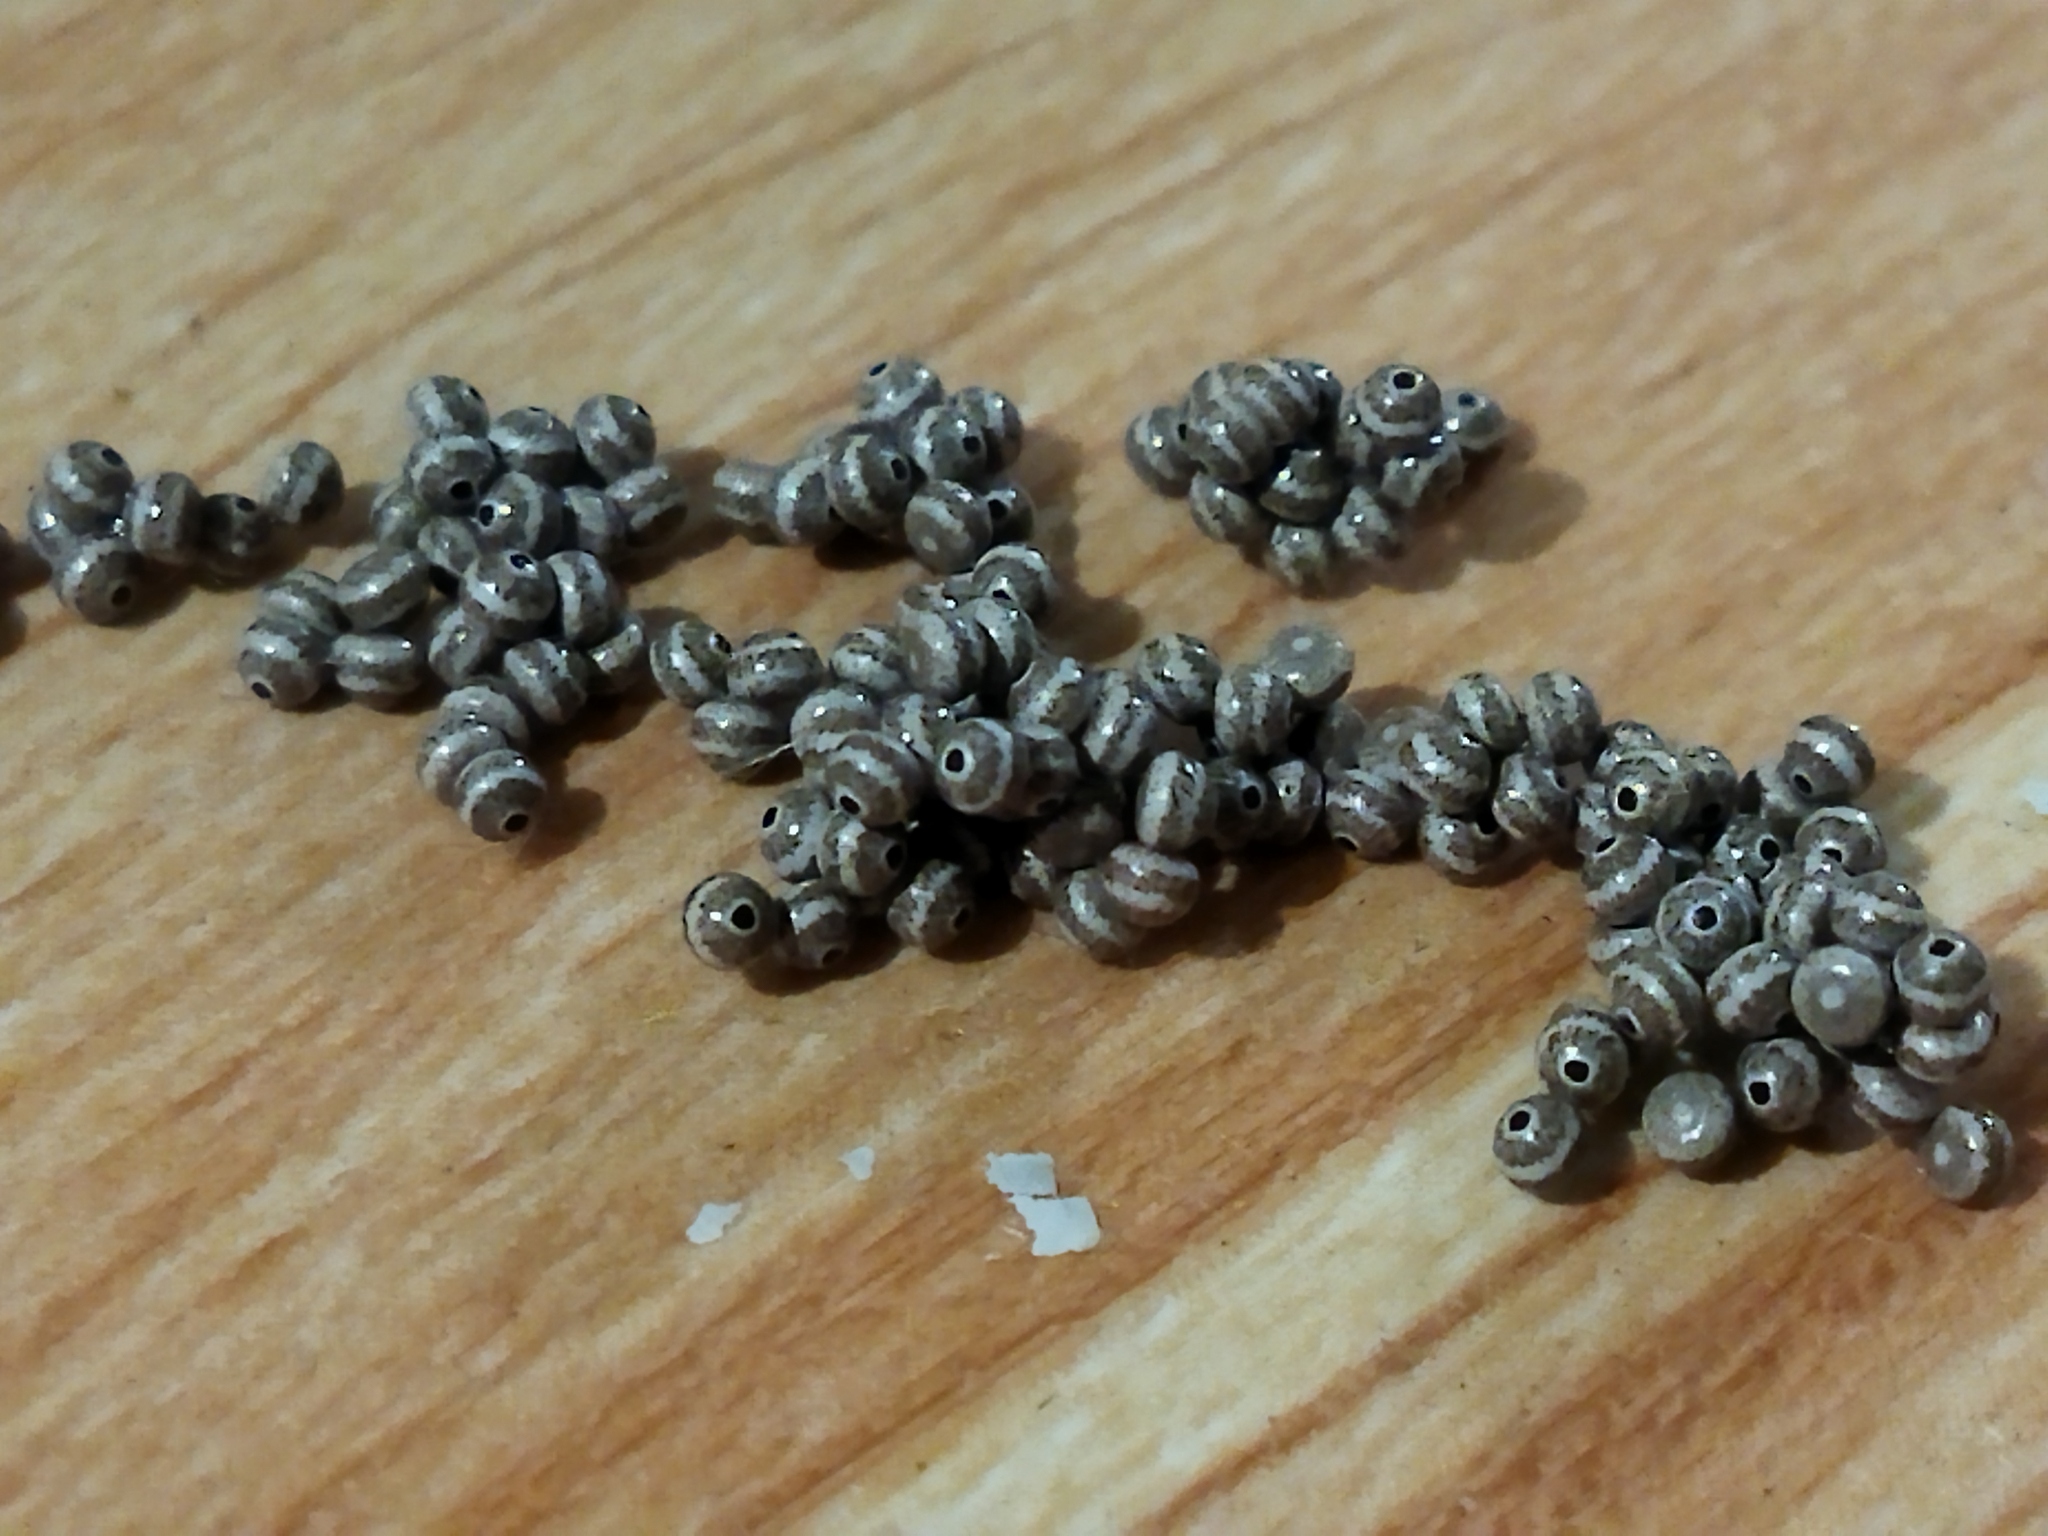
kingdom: Animalia
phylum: Arthropoda
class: Insecta
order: Lepidoptera
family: Brahmaeidae
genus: Lemonia
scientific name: Lemonia balcanica
